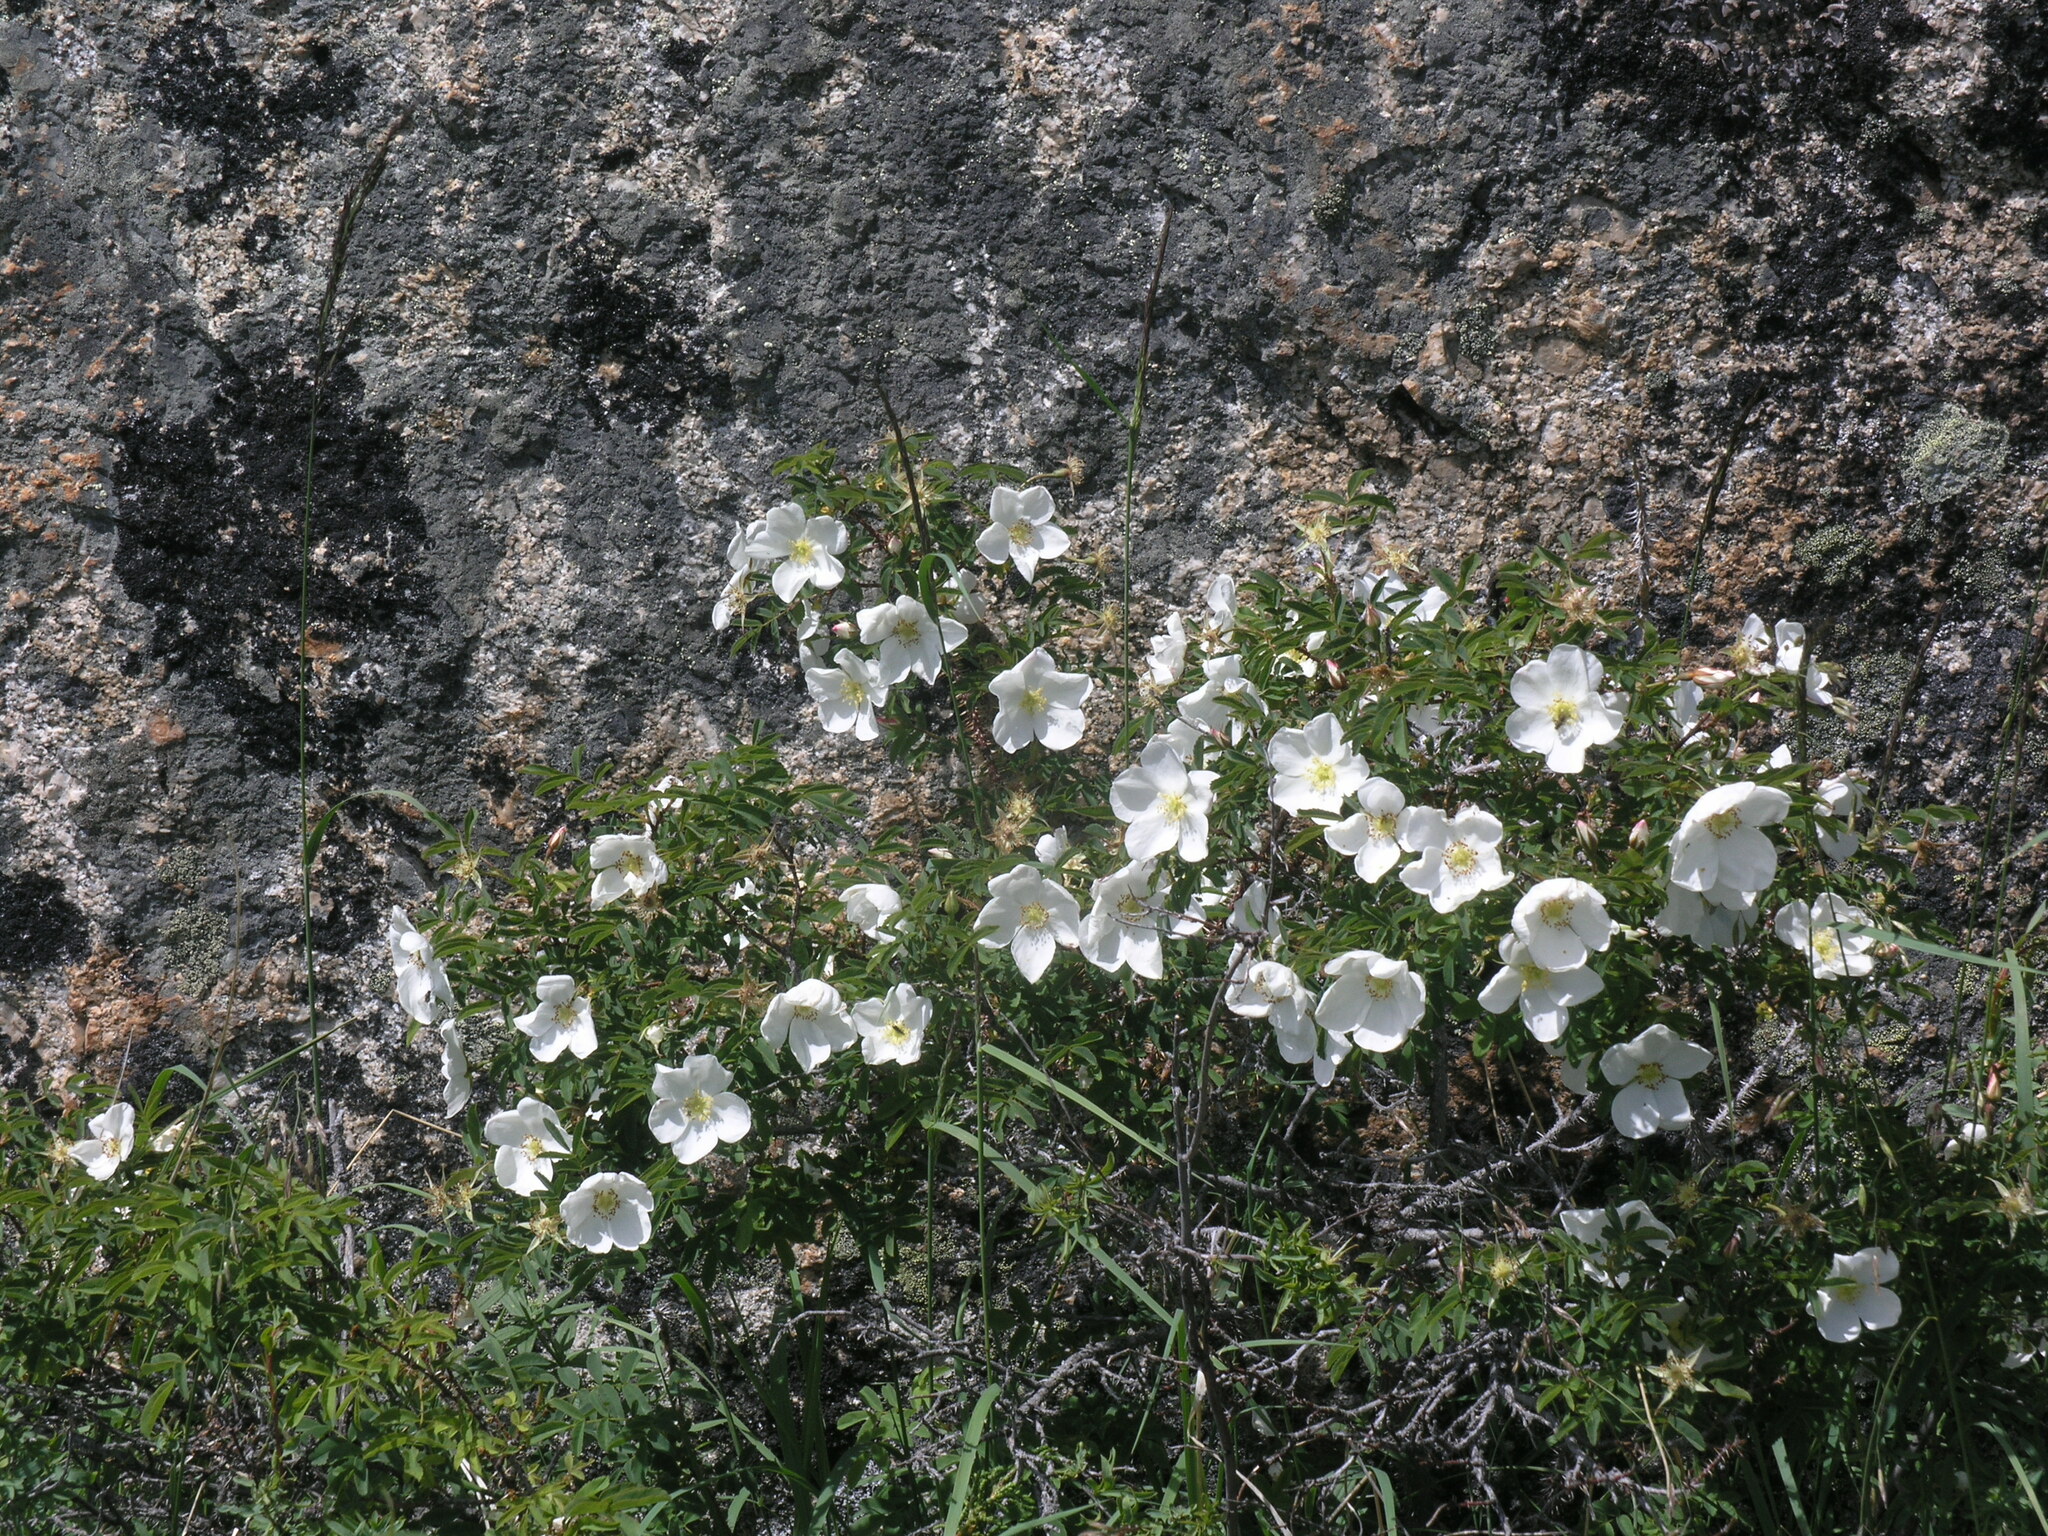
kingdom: Plantae
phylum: Tracheophyta
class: Magnoliopsida
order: Rosales
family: Rosaceae
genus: Rosa
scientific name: Rosa spinosissima
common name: Burnet rose
